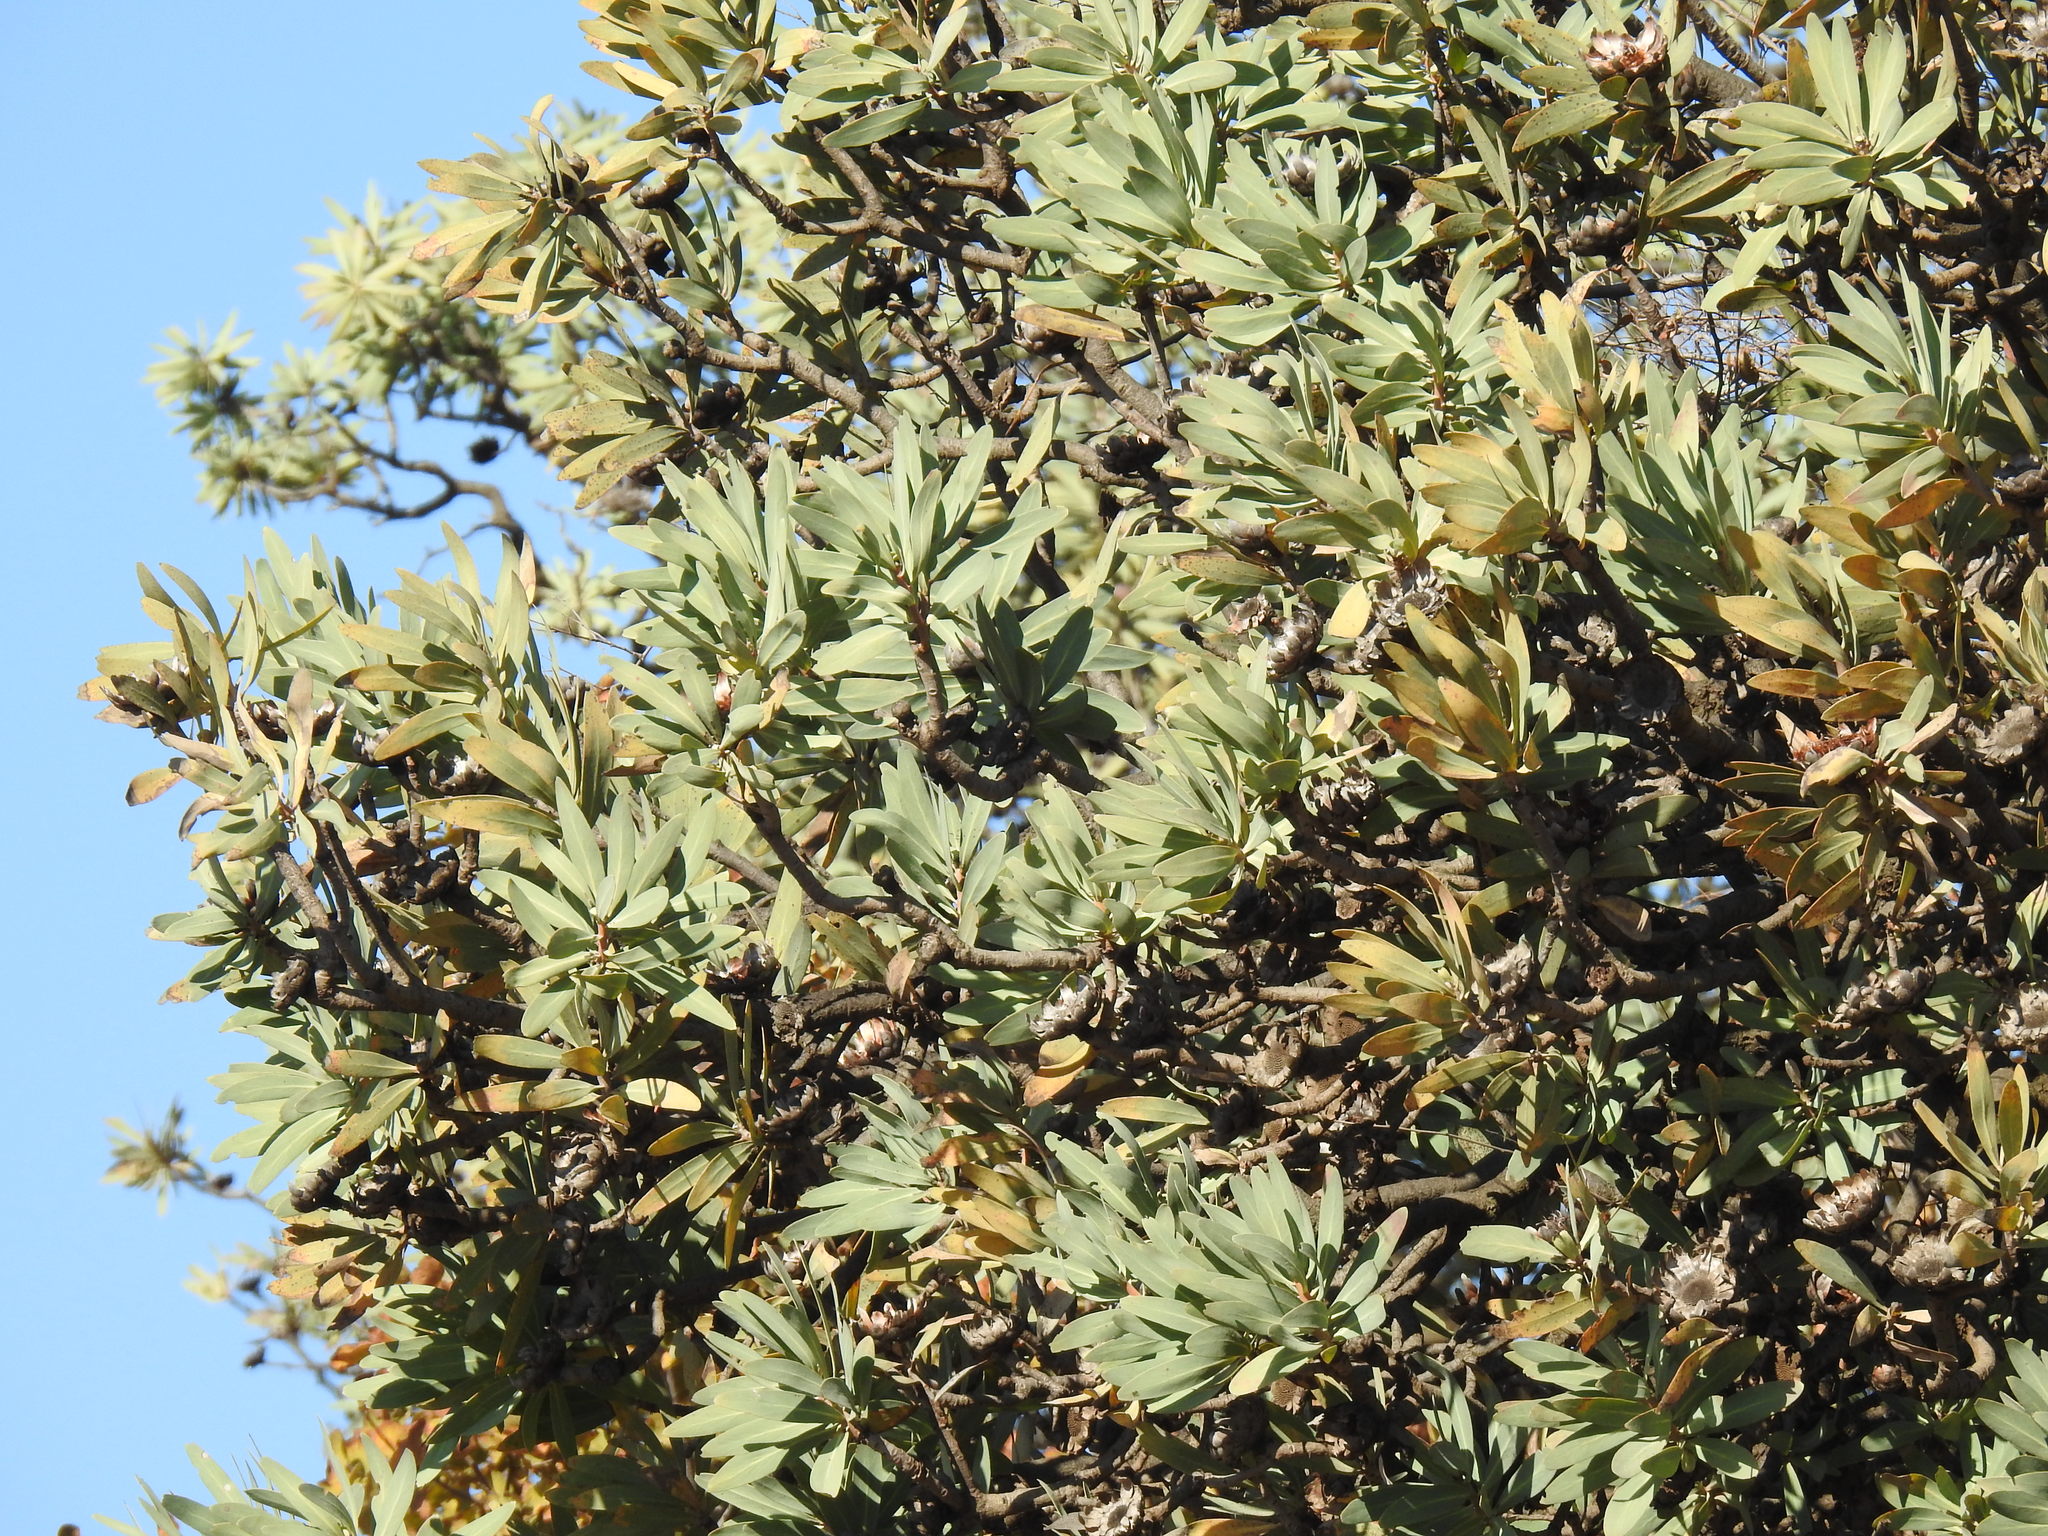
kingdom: Plantae
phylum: Tracheophyta
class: Magnoliopsida
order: Proteales
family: Proteaceae
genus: Protea
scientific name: Protea caffra
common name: Common sugarbush
